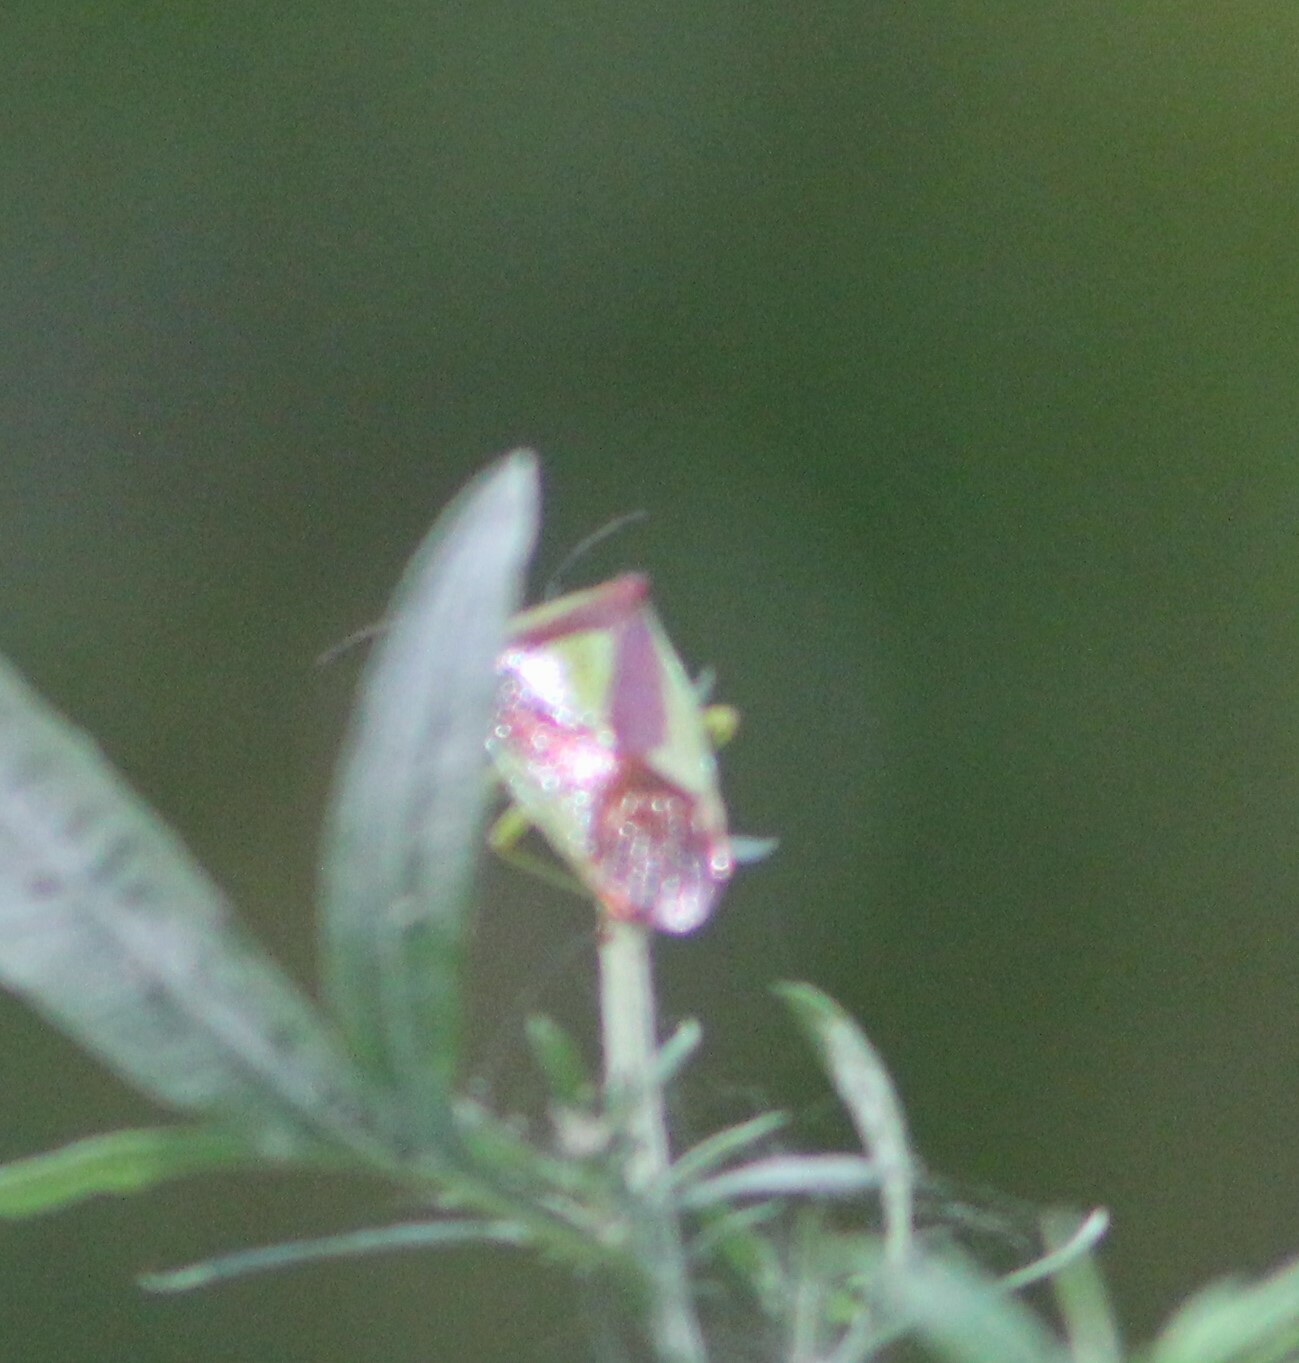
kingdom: Animalia
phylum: Arthropoda
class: Insecta
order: Hemiptera
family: Acanthosomatidae
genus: Acanthosoma
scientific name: Acanthosoma haemorrhoidale
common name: Hawthorn shieldbug
